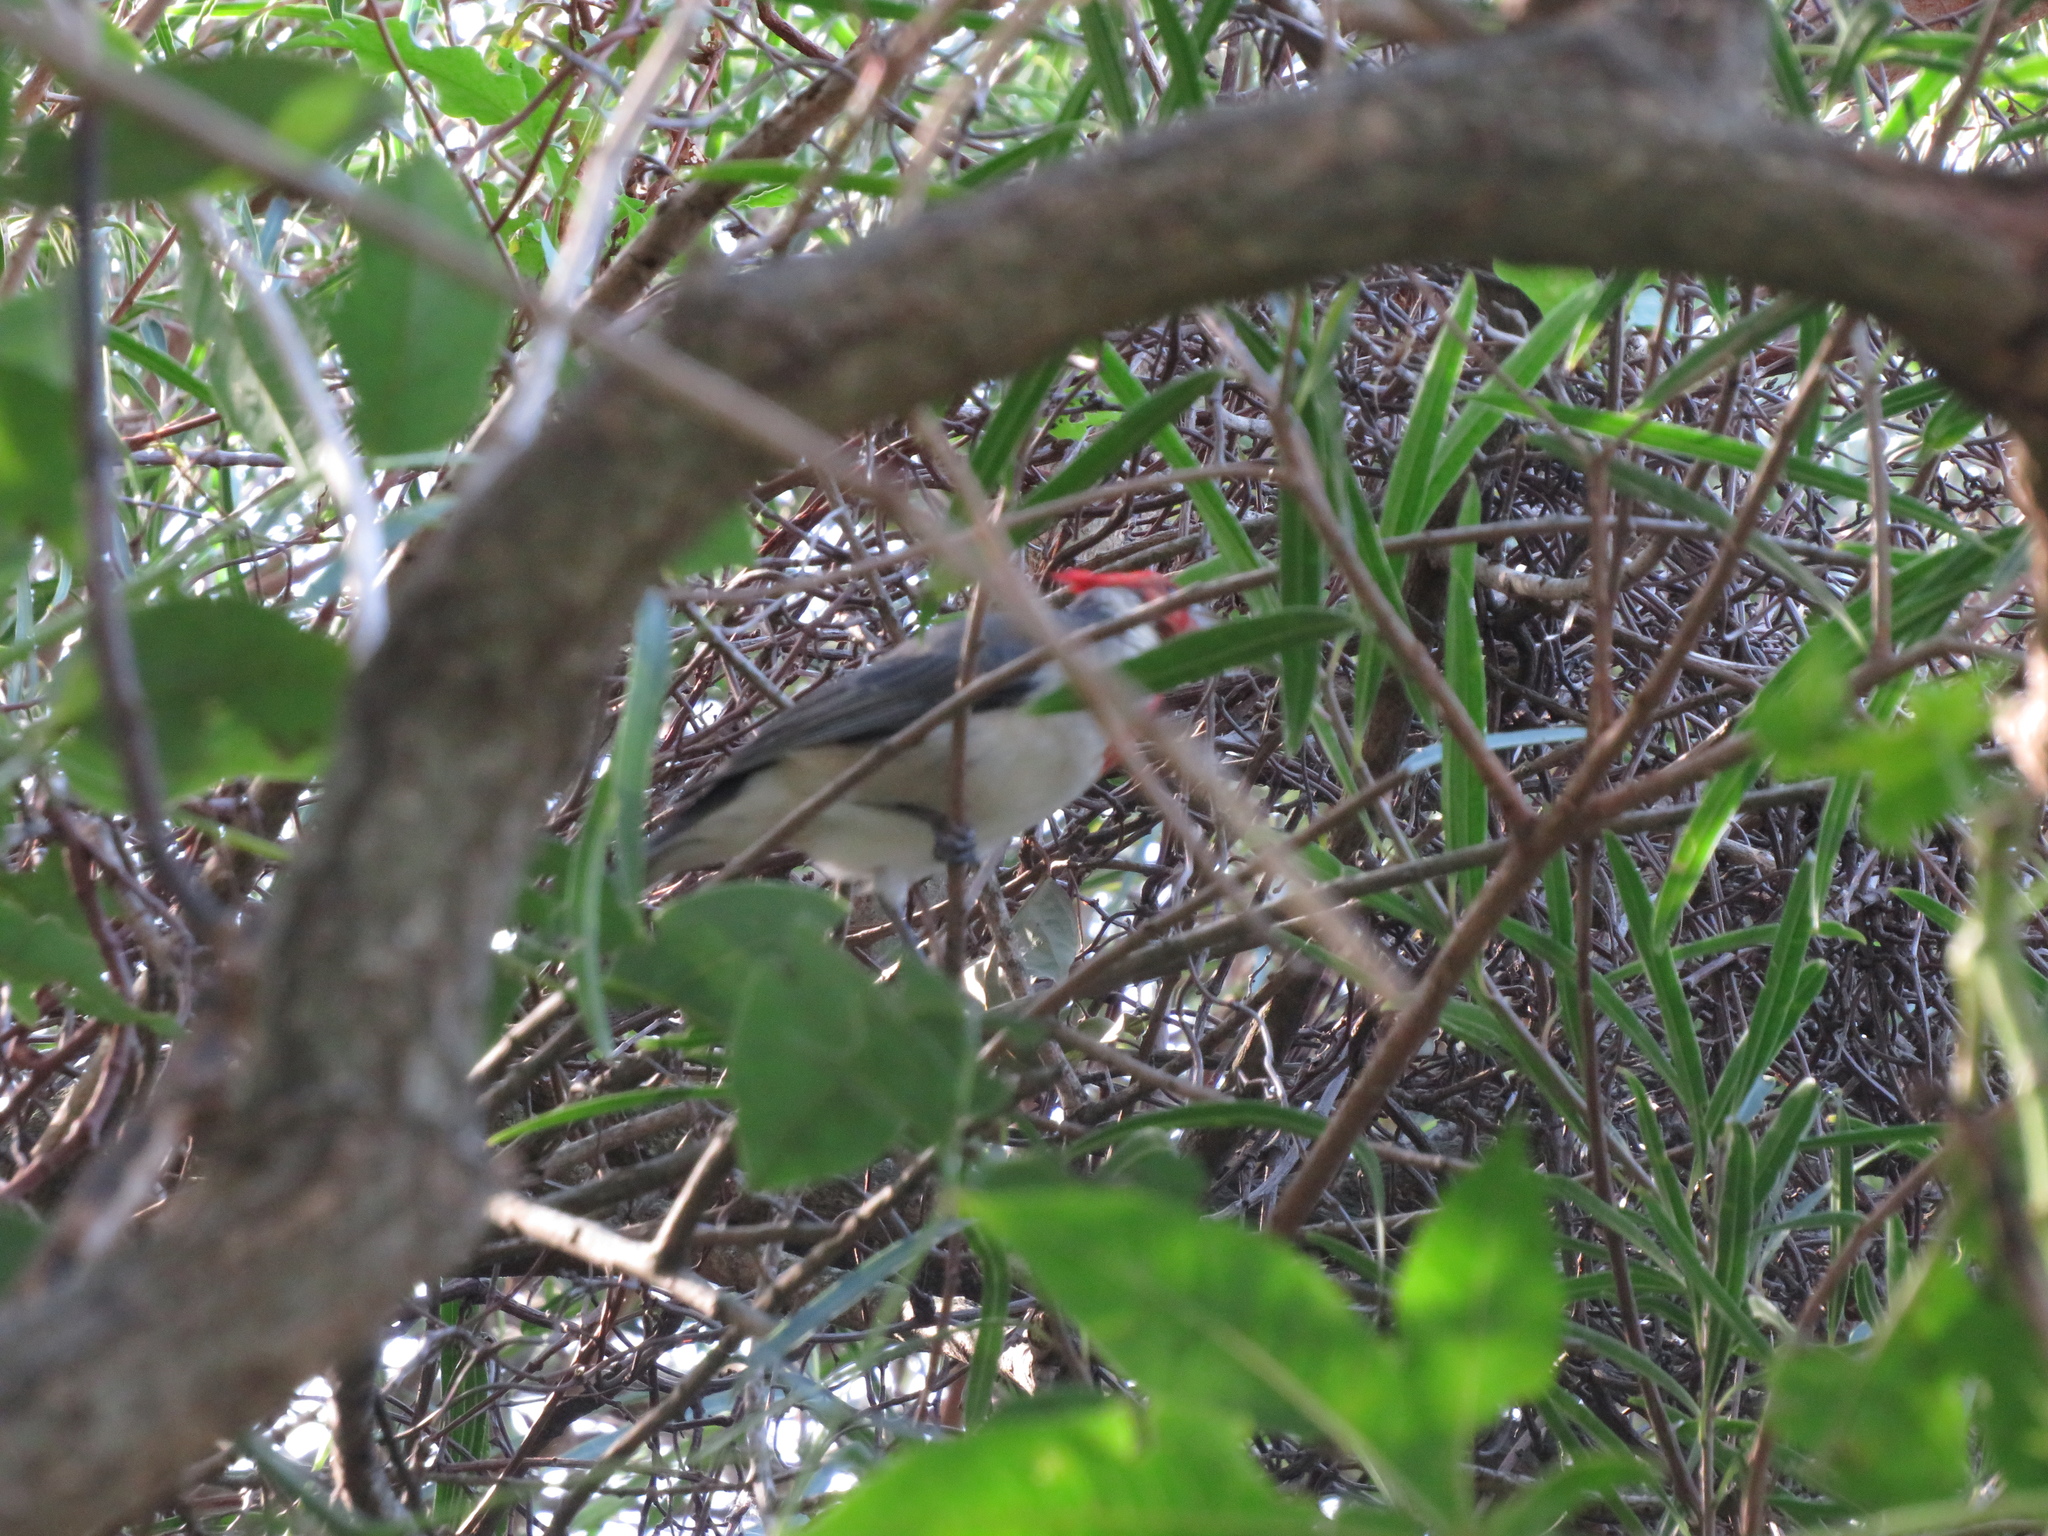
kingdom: Animalia
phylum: Chordata
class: Aves
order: Passeriformes
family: Thraupidae
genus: Paroaria
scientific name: Paroaria coronata
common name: Red-crested cardinal
